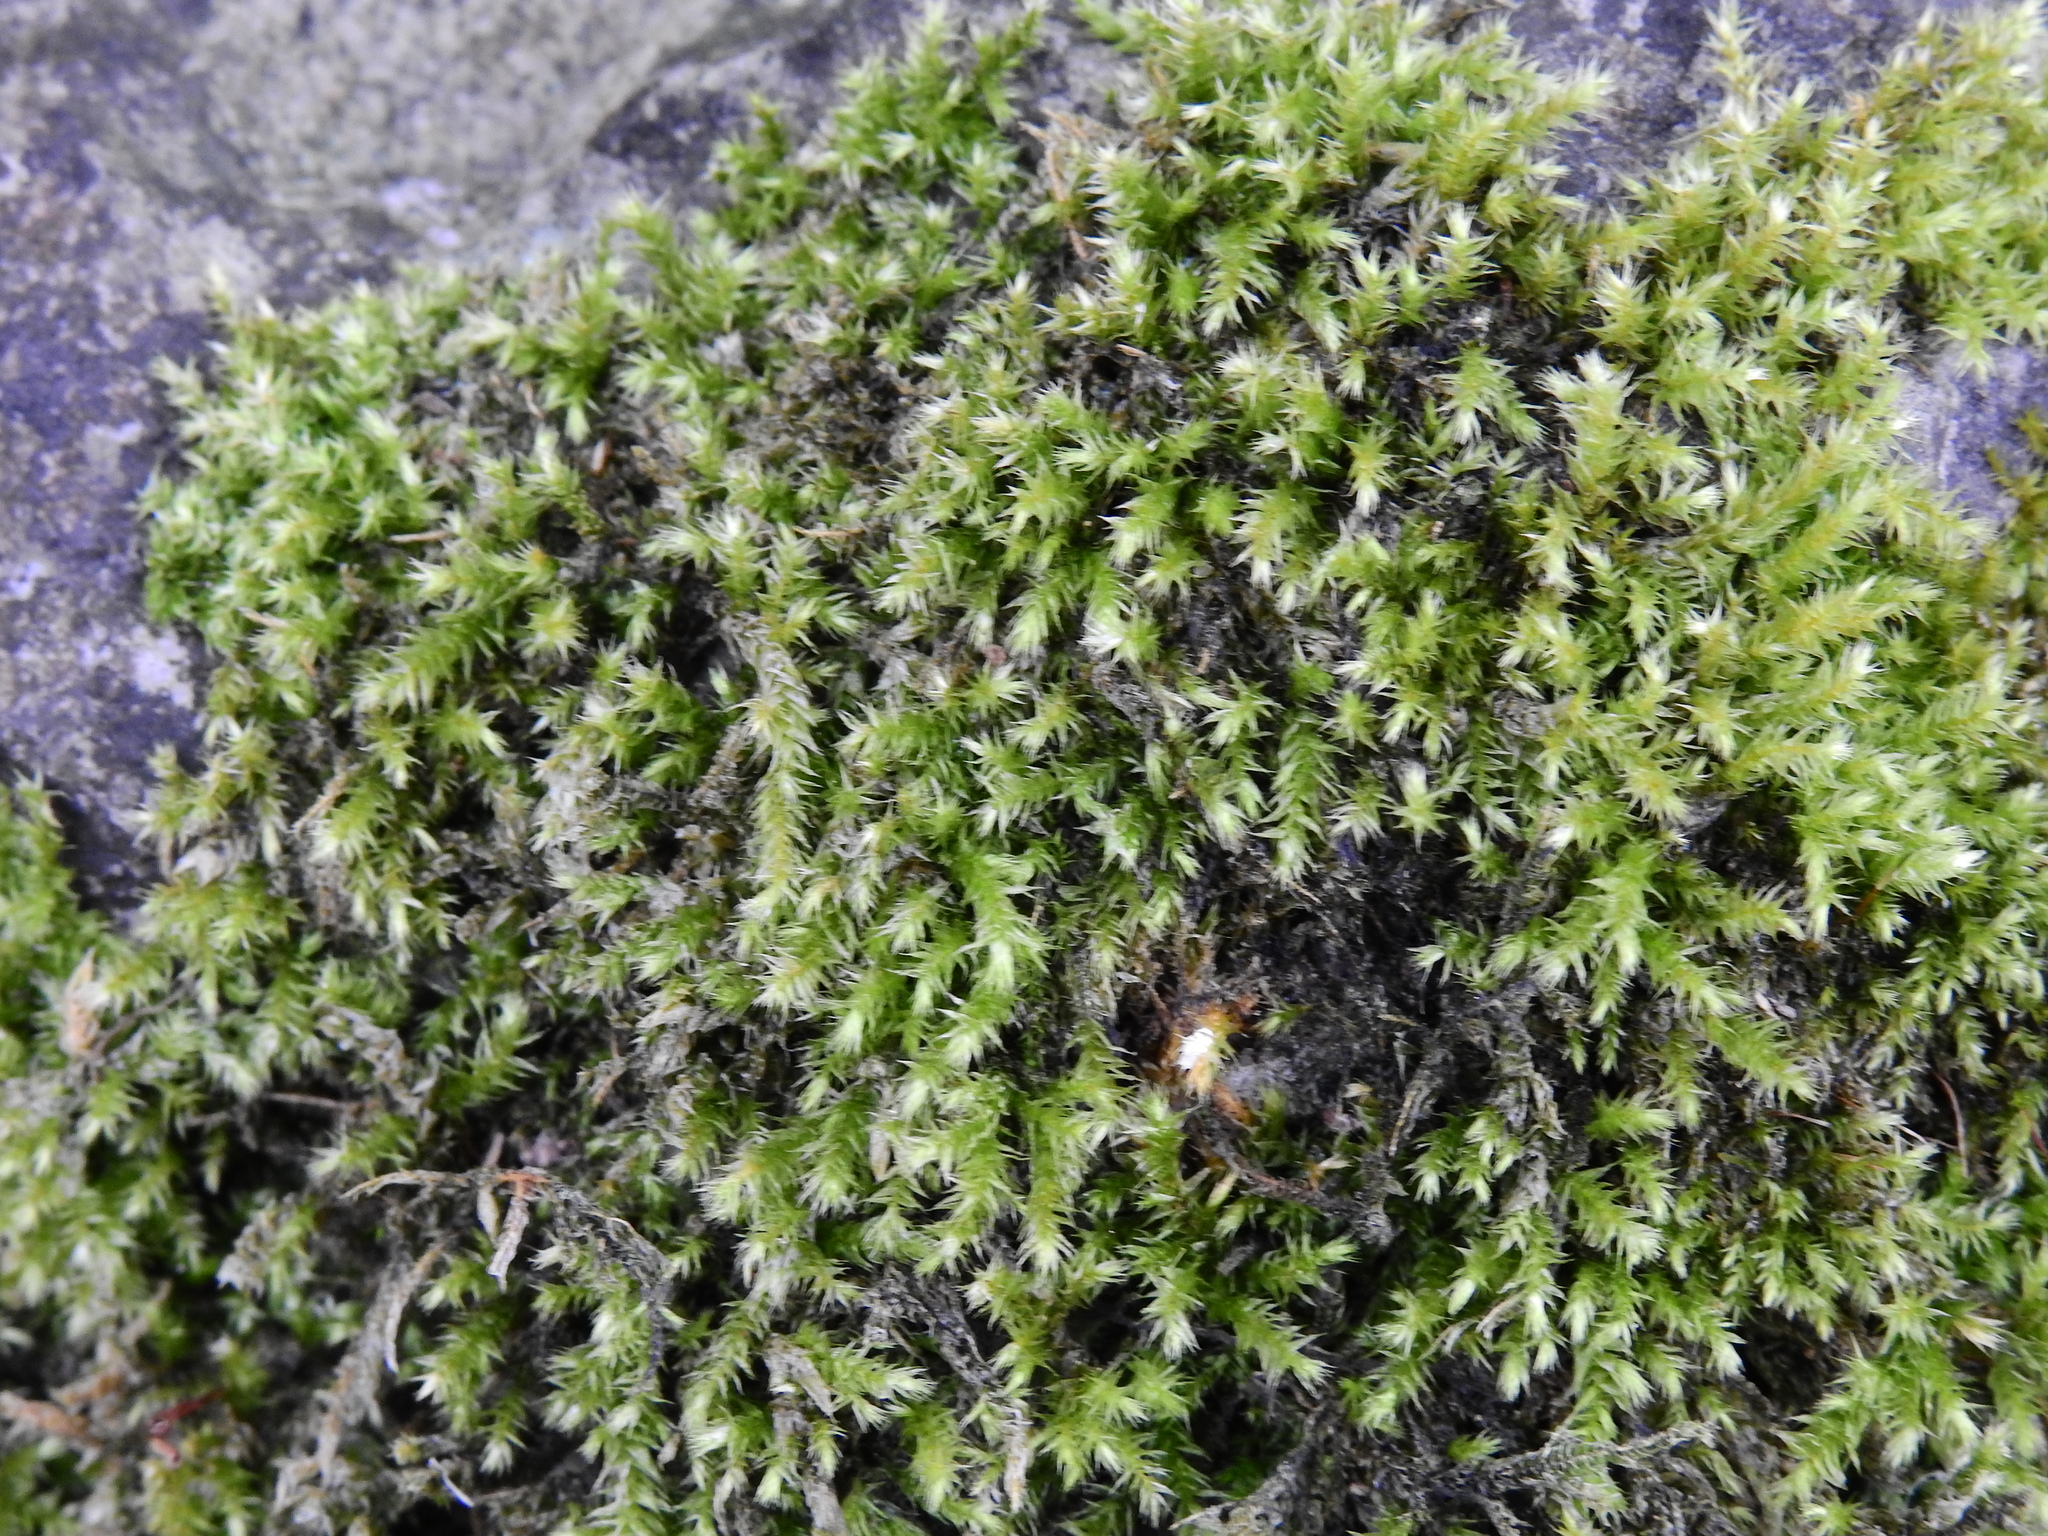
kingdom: Plantae
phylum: Bryophyta
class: Bryopsida
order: Hypnales
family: Brachytheciaceae
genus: Brachythecium
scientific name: Brachythecium rutabulum
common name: Rough-stalked feather-moss
